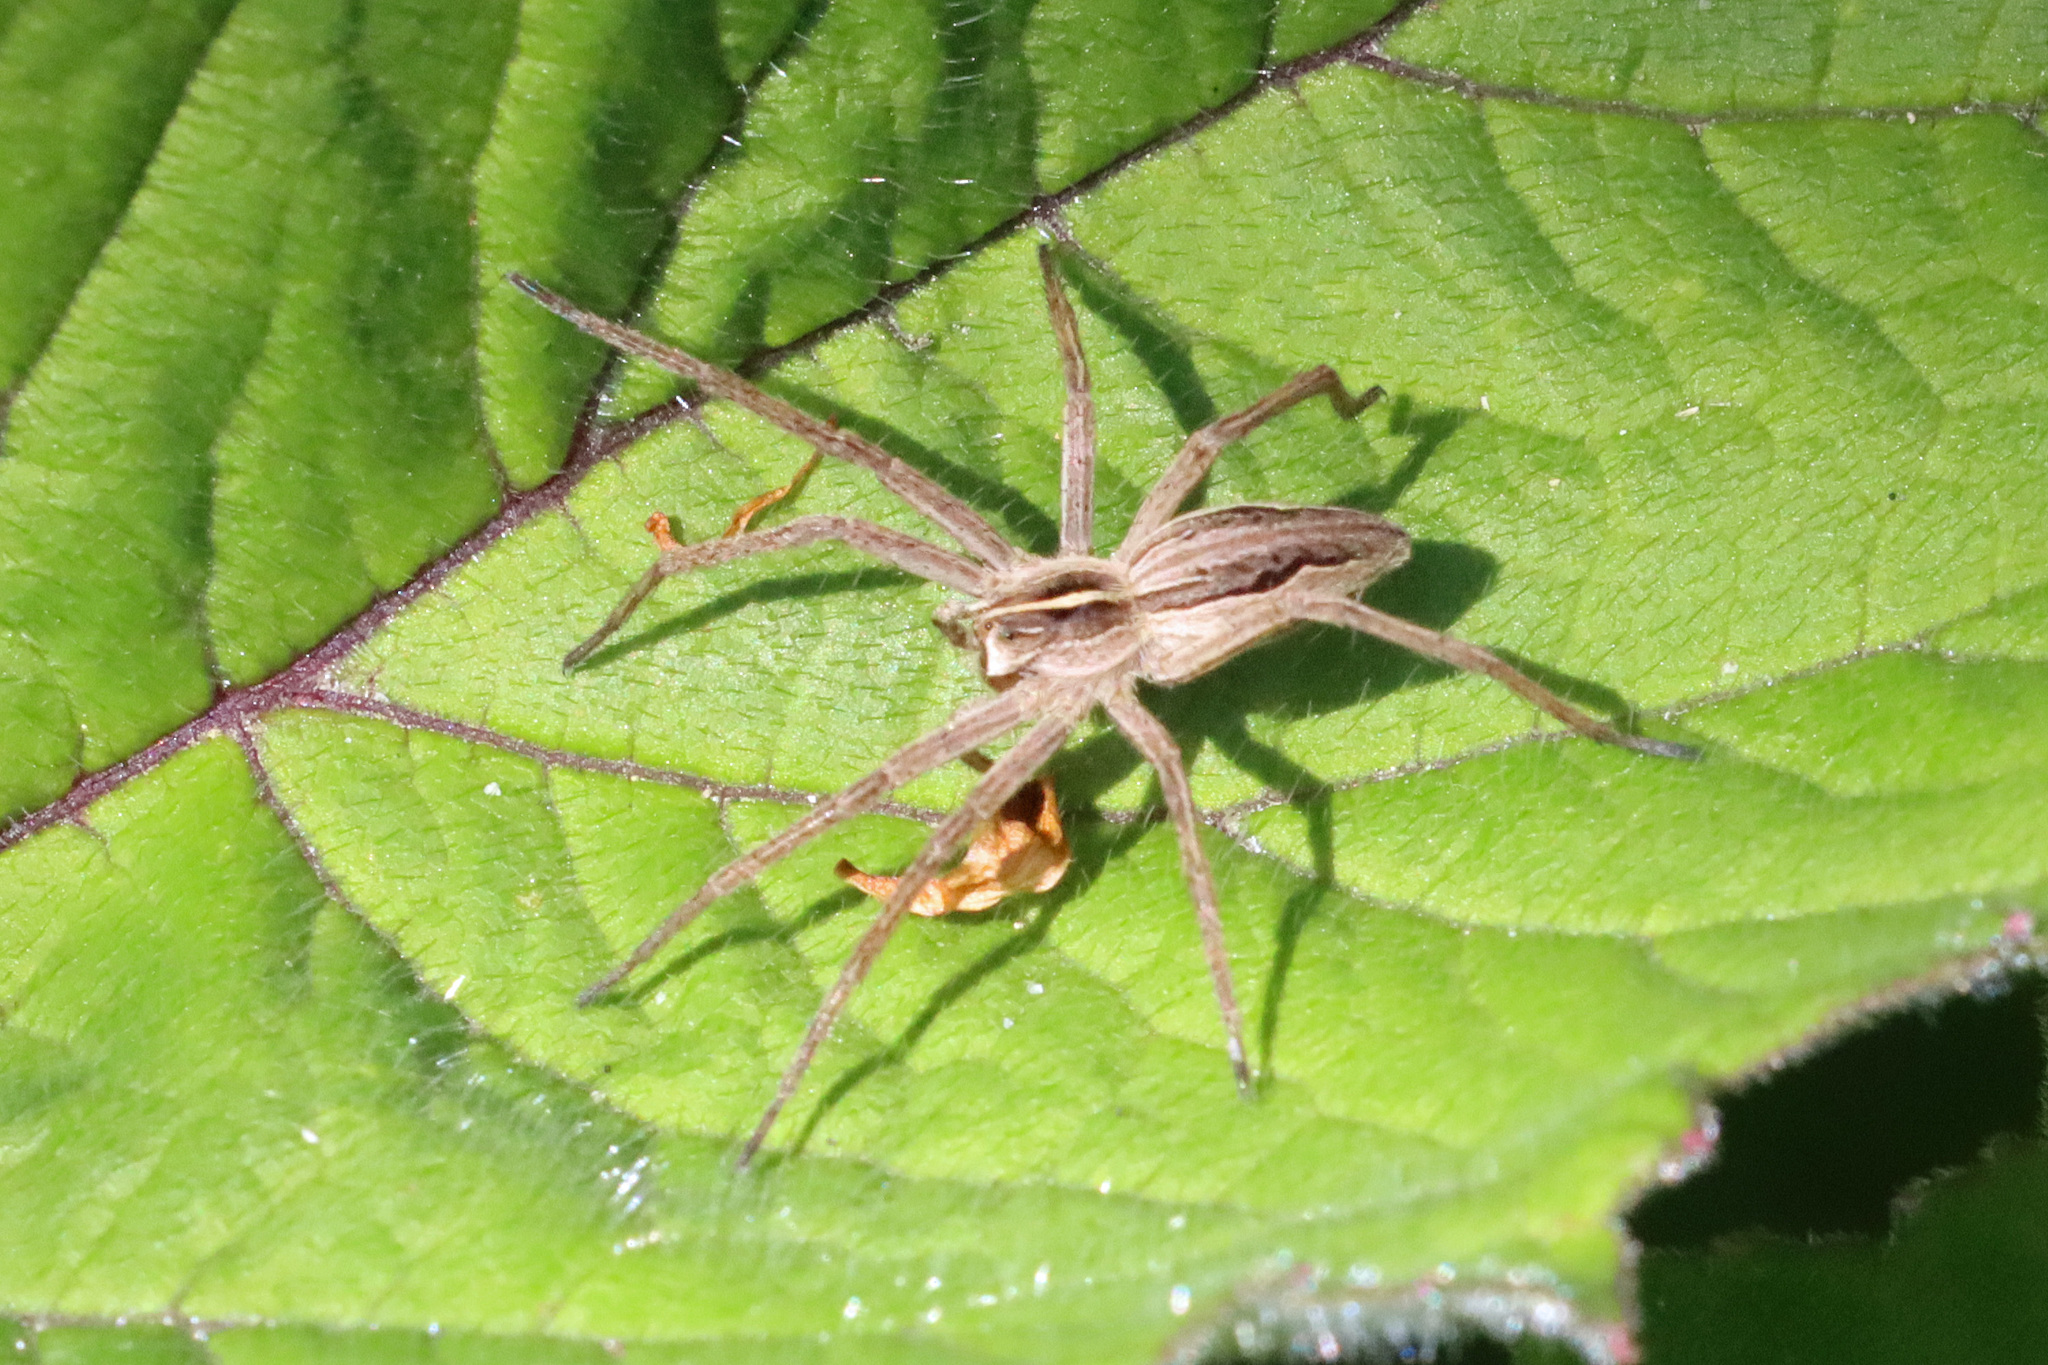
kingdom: Animalia
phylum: Arthropoda
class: Arachnida
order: Araneae
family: Pisauridae
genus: Pisaura
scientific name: Pisaura mirabilis
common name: Tent spider
